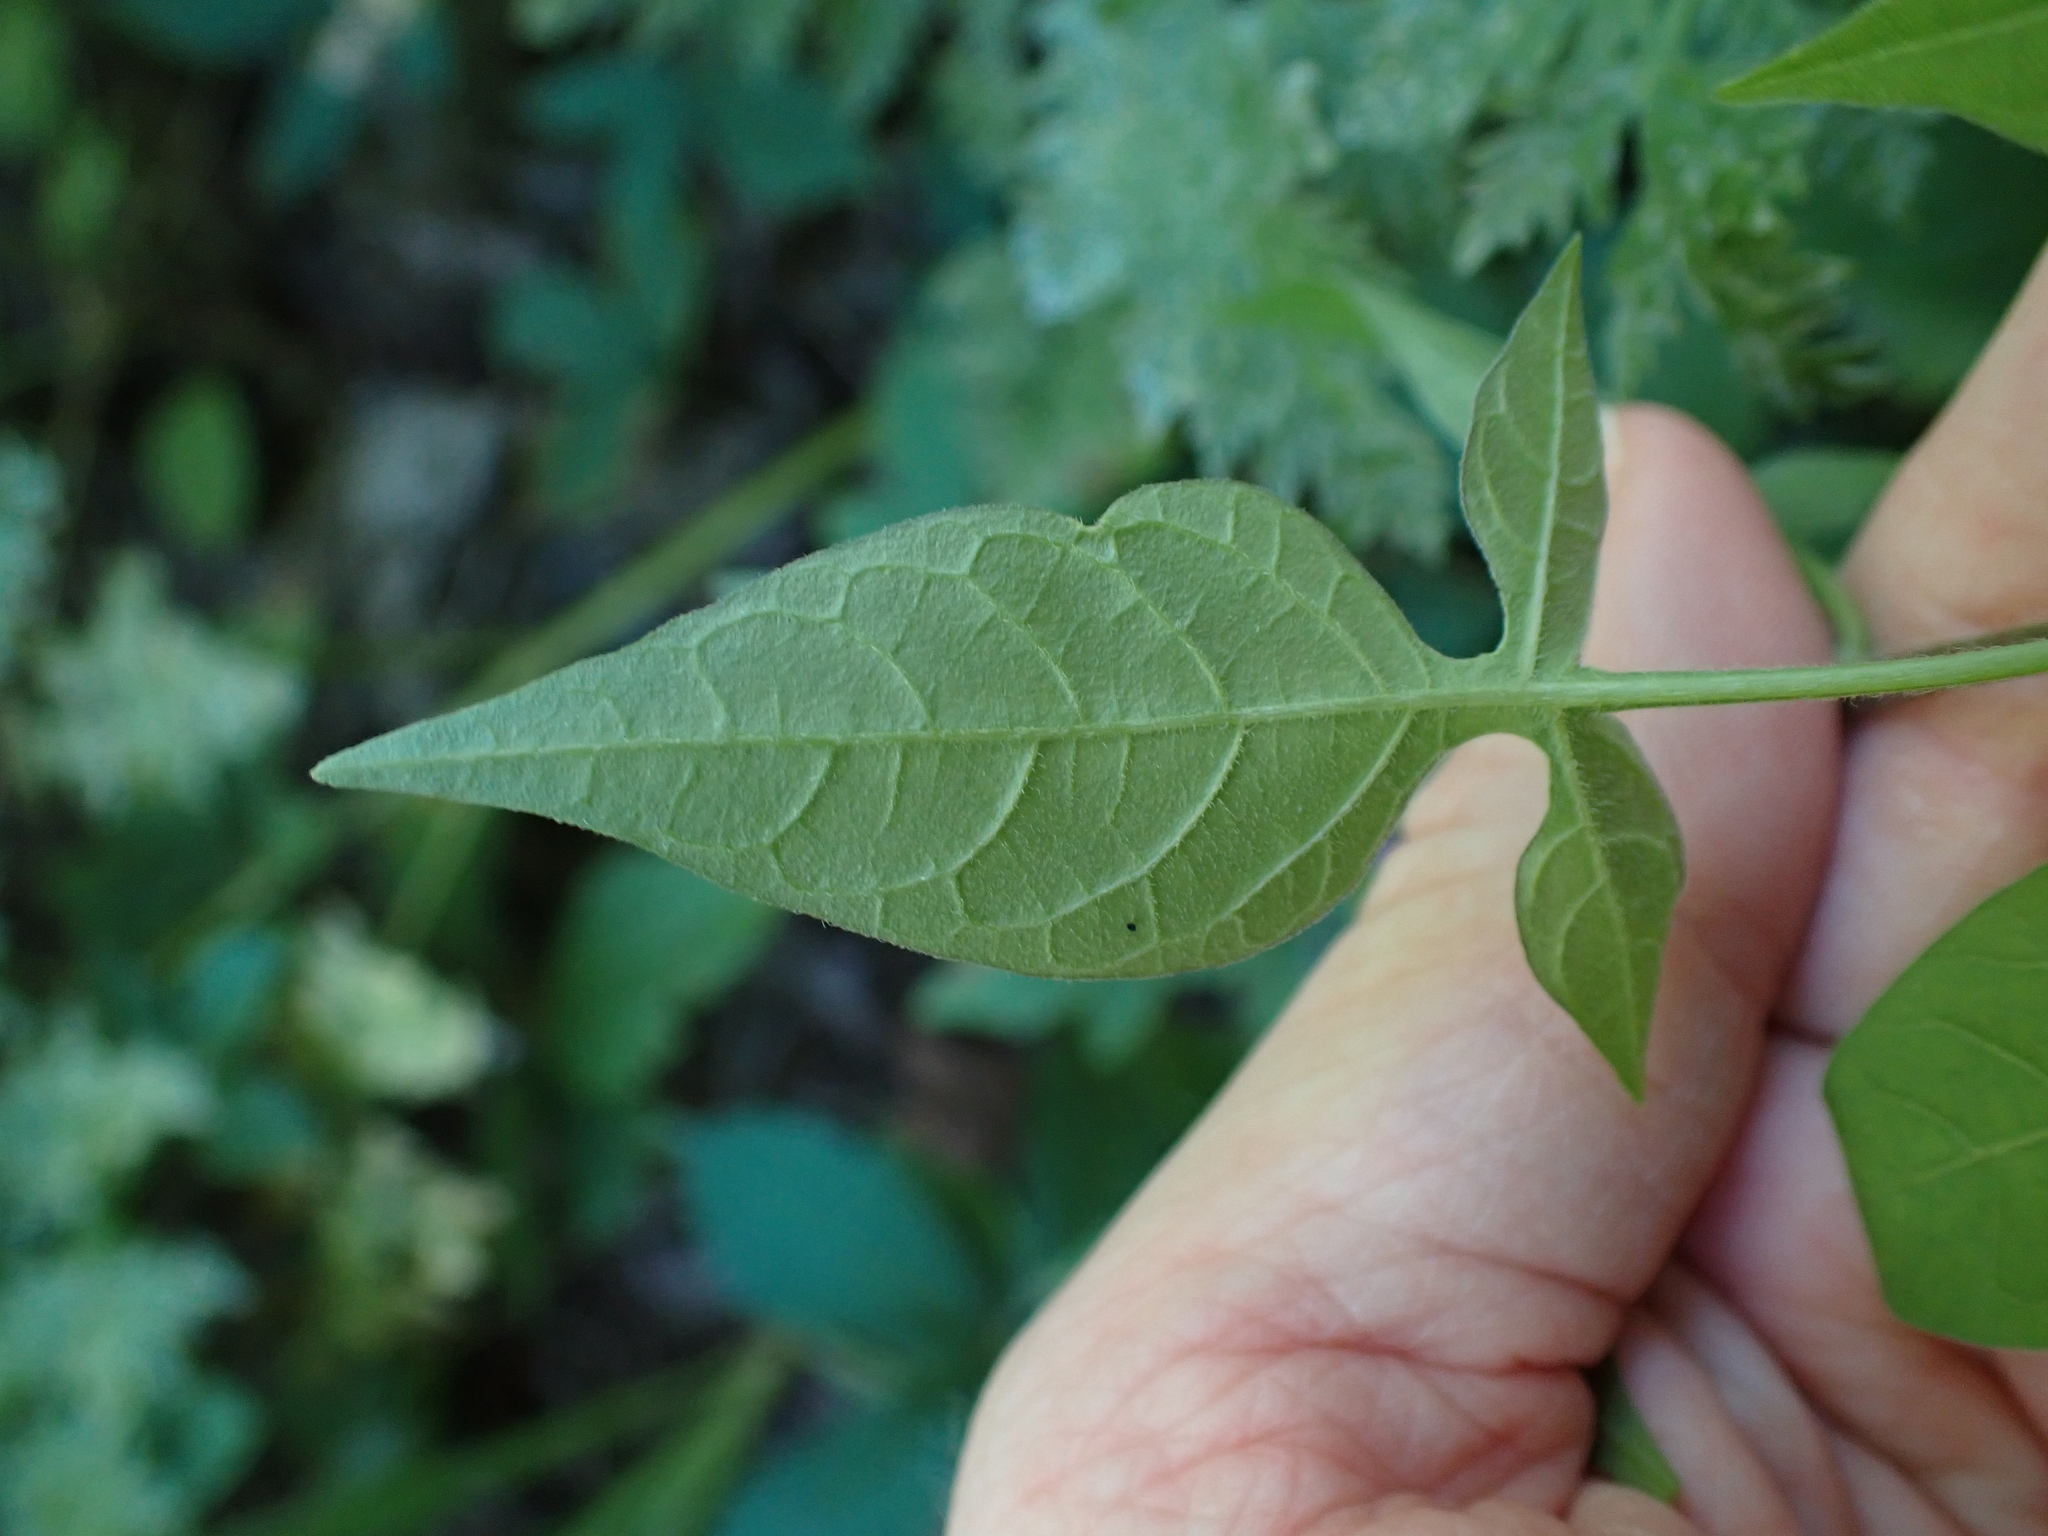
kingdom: Plantae
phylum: Tracheophyta
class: Magnoliopsida
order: Solanales
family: Solanaceae
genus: Solanum
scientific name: Solanum dulcamara
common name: Climbing nightshade
